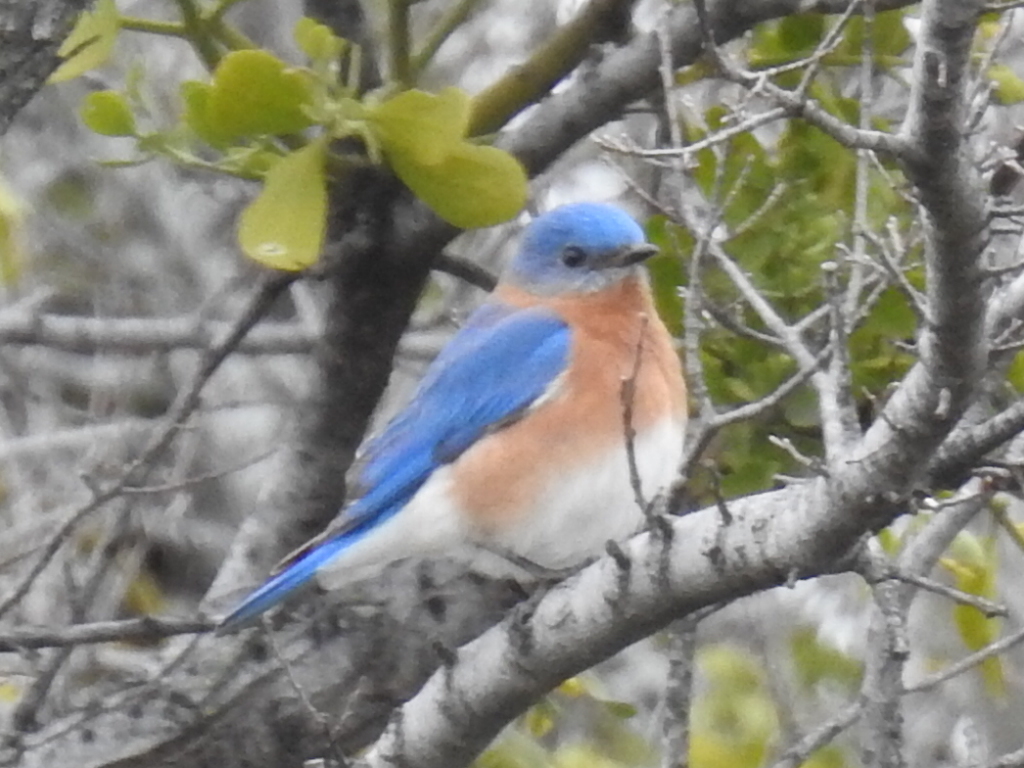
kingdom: Animalia
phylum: Chordata
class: Aves
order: Passeriformes
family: Turdidae
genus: Sialia
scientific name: Sialia sialis
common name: Eastern bluebird
